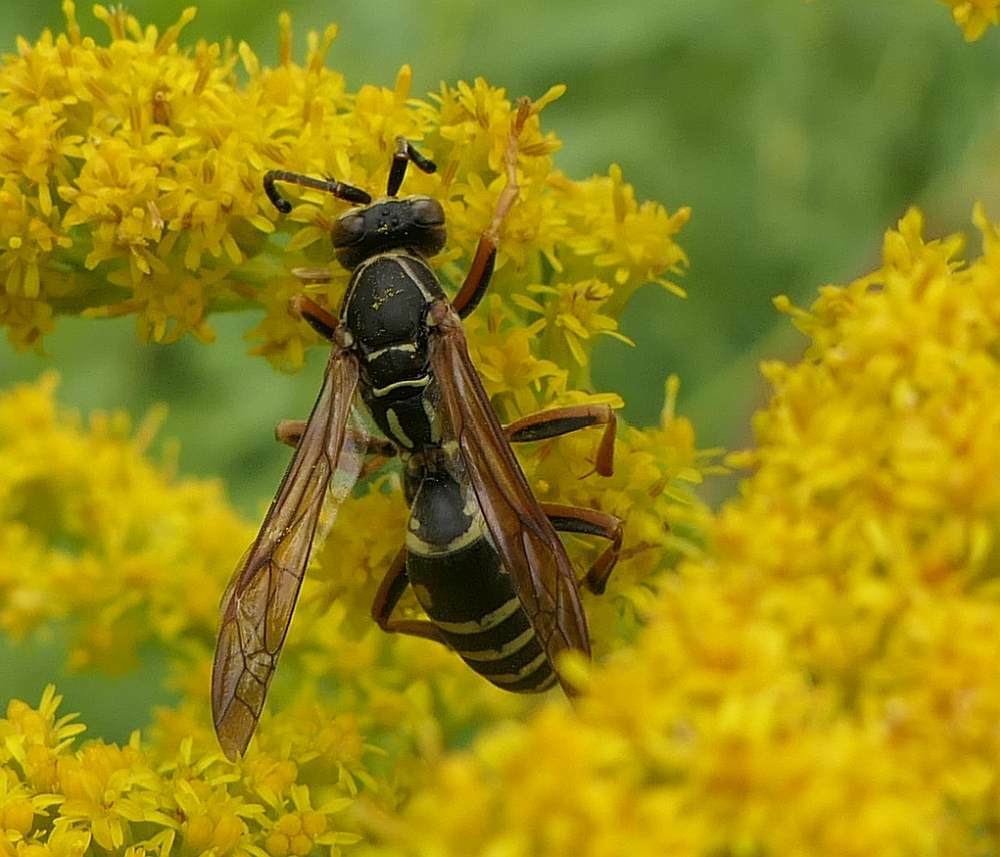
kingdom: Animalia
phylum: Arthropoda
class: Insecta
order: Hymenoptera
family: Eumenidae
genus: Polistes
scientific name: Polistes fuscatus
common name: Dark paper wasp
